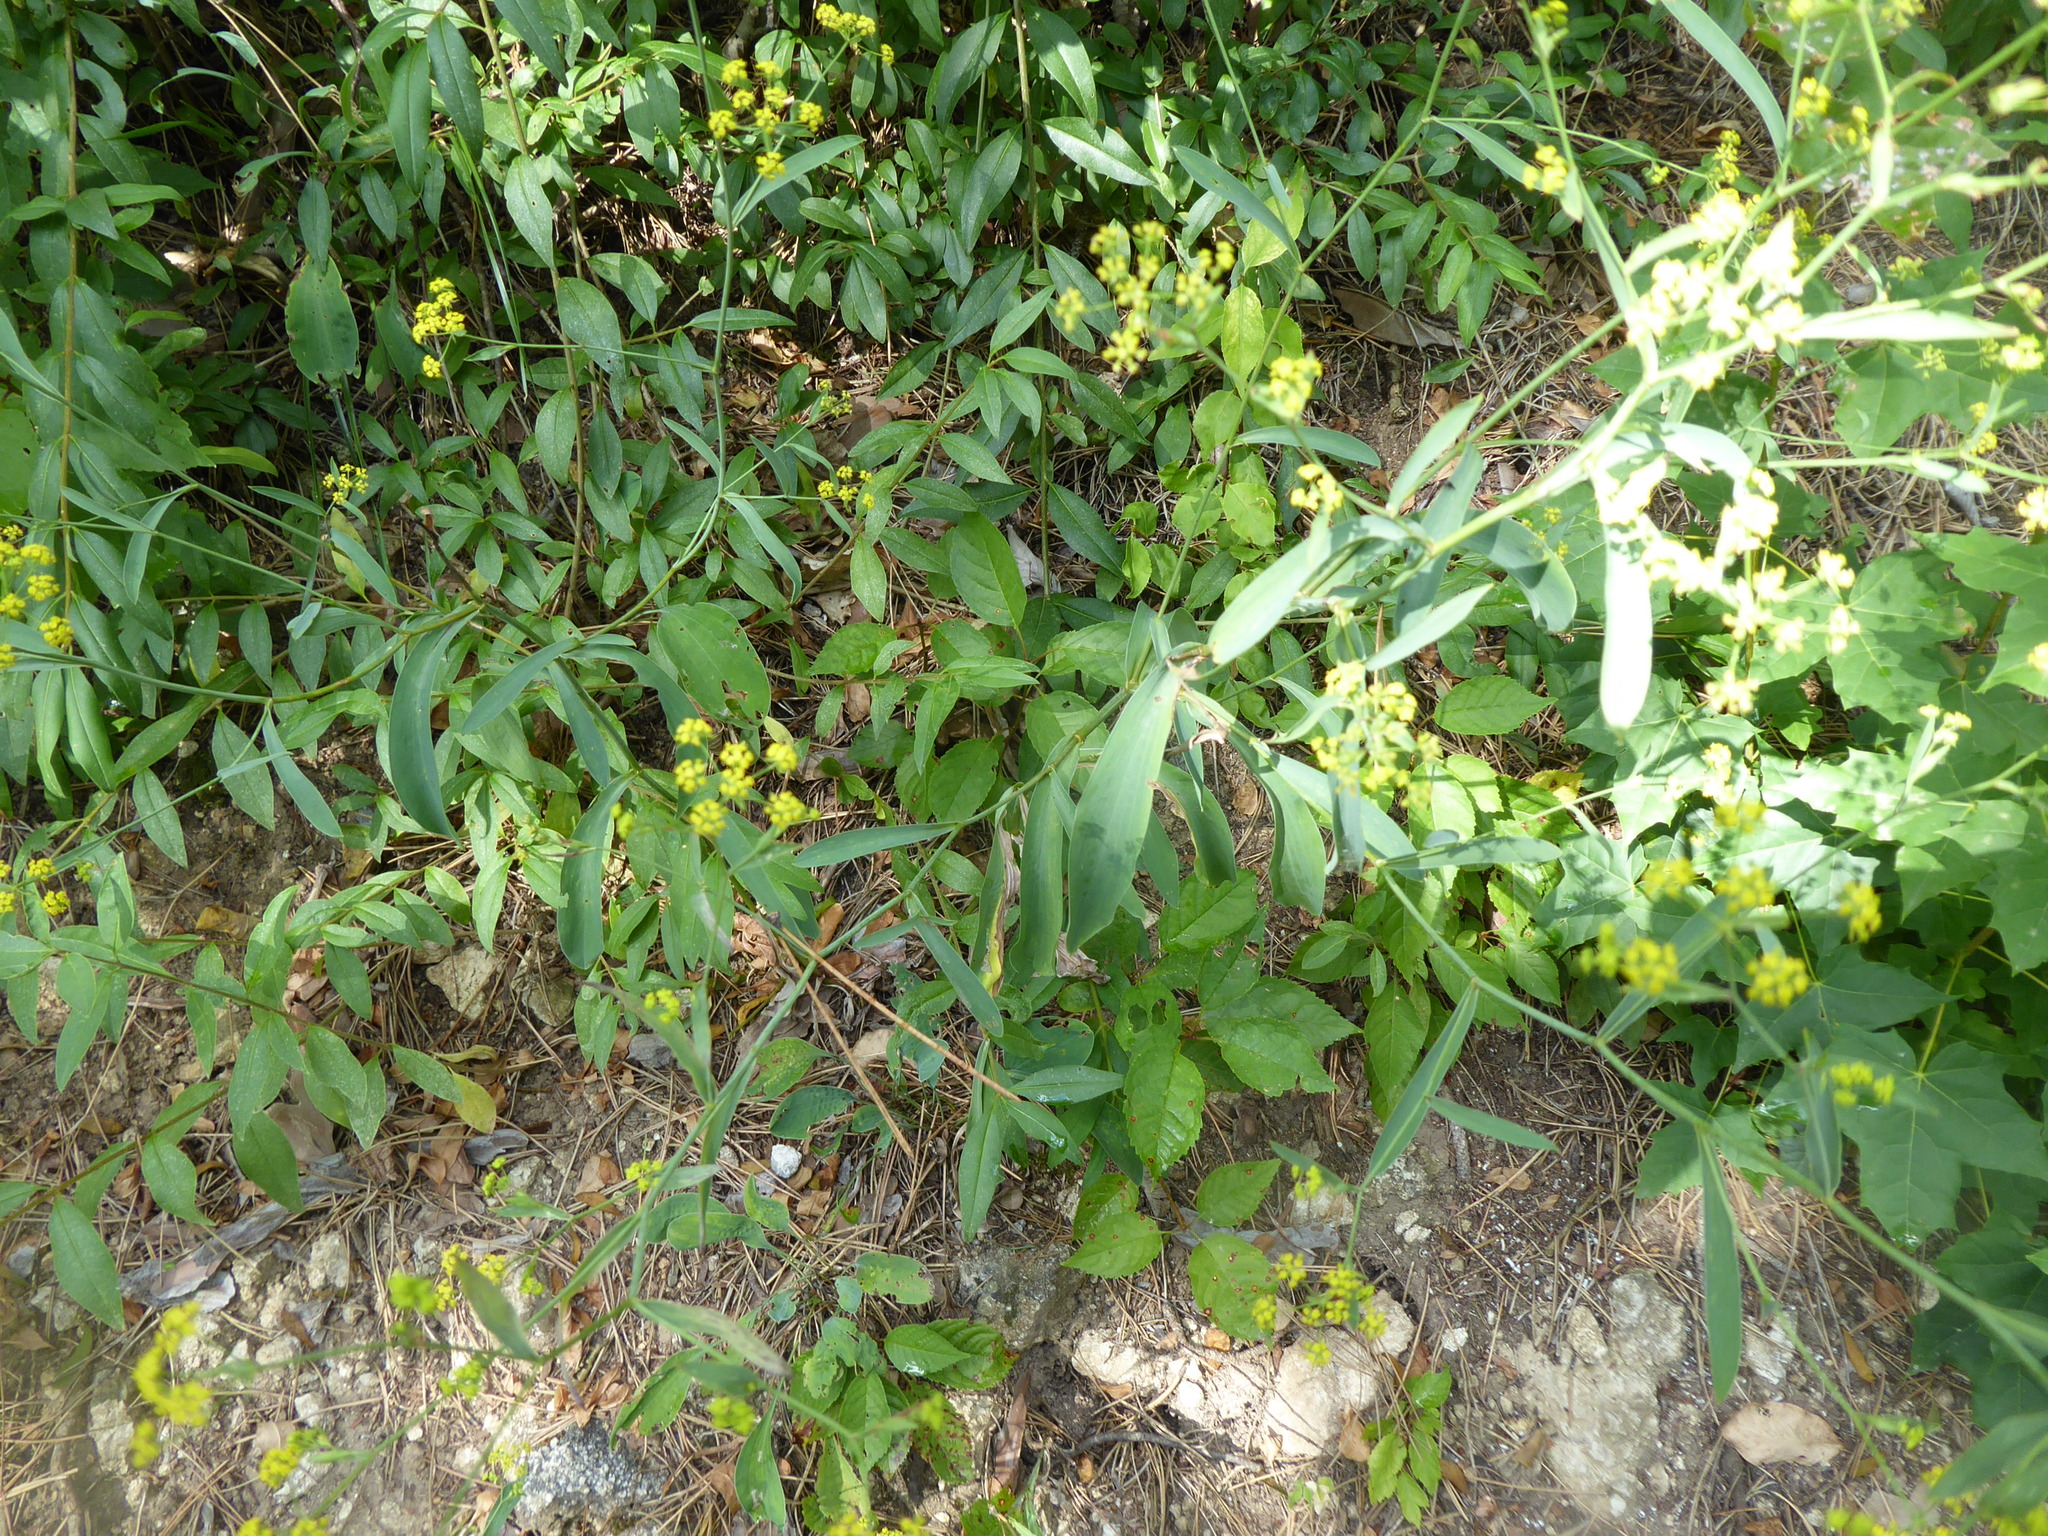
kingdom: Plantae
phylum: Tracheophyta
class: Magnoliopsida
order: Apiales
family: Apiaceae
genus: Bupleurum
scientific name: Bupleurum falcatum
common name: Sickle-leaved hare's-ear
